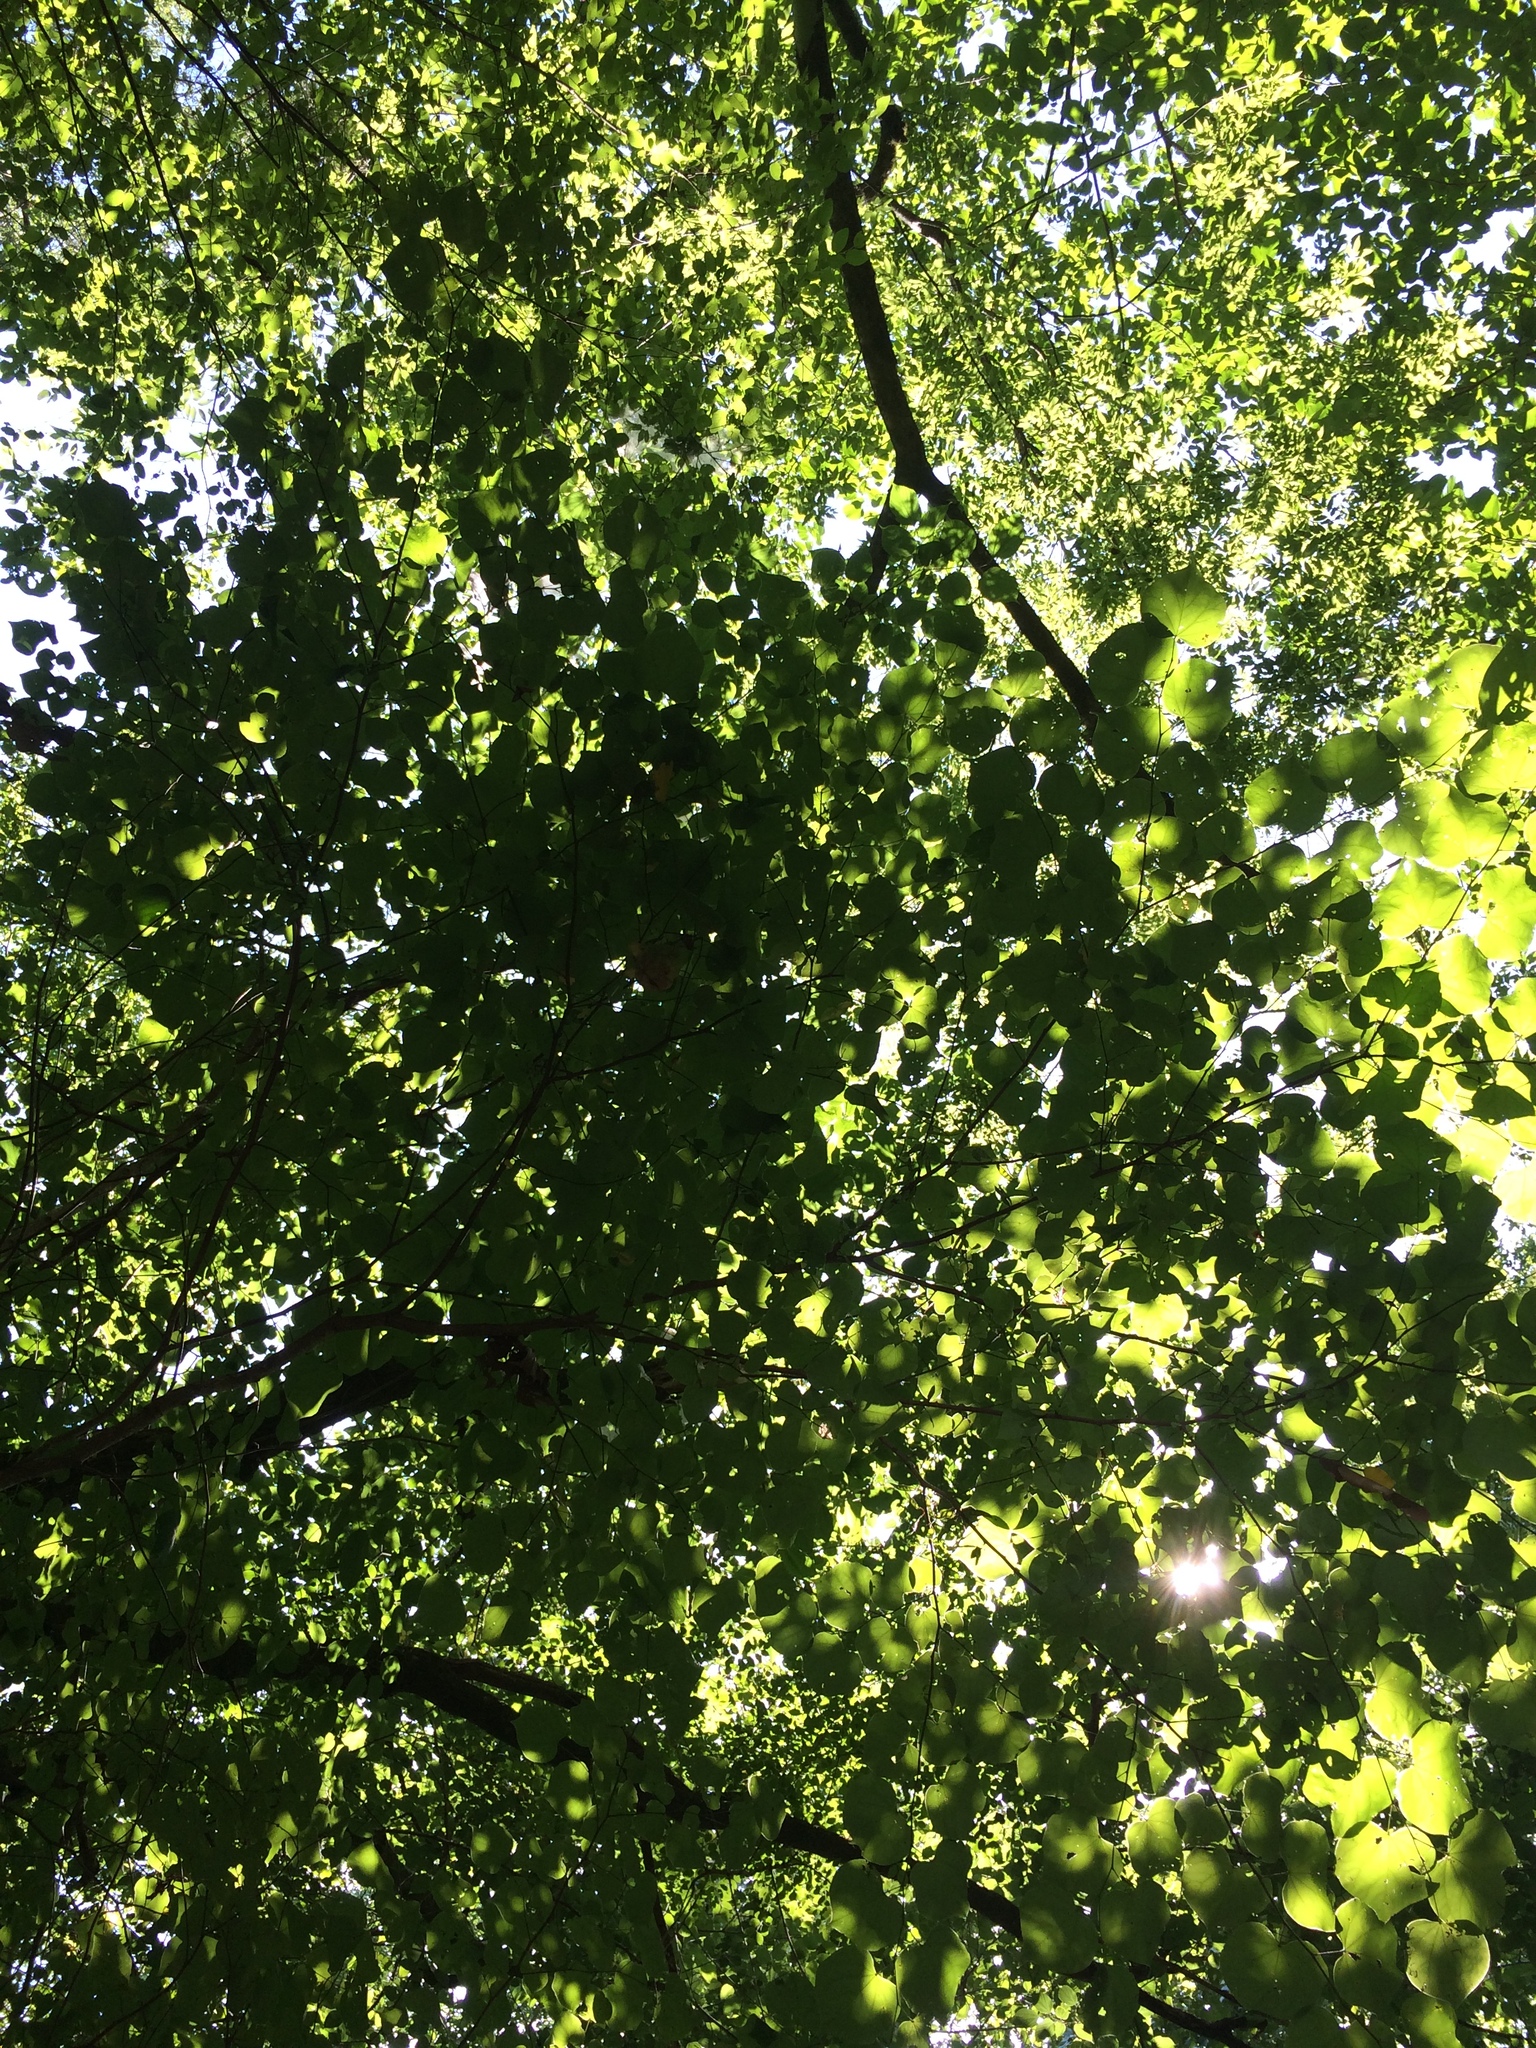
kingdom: Plantae
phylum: Tracheophyta
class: Magnoliopsida
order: Fabales
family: Fabaceae
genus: Cercis
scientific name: Cercis canadensis
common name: Eastern redbud
